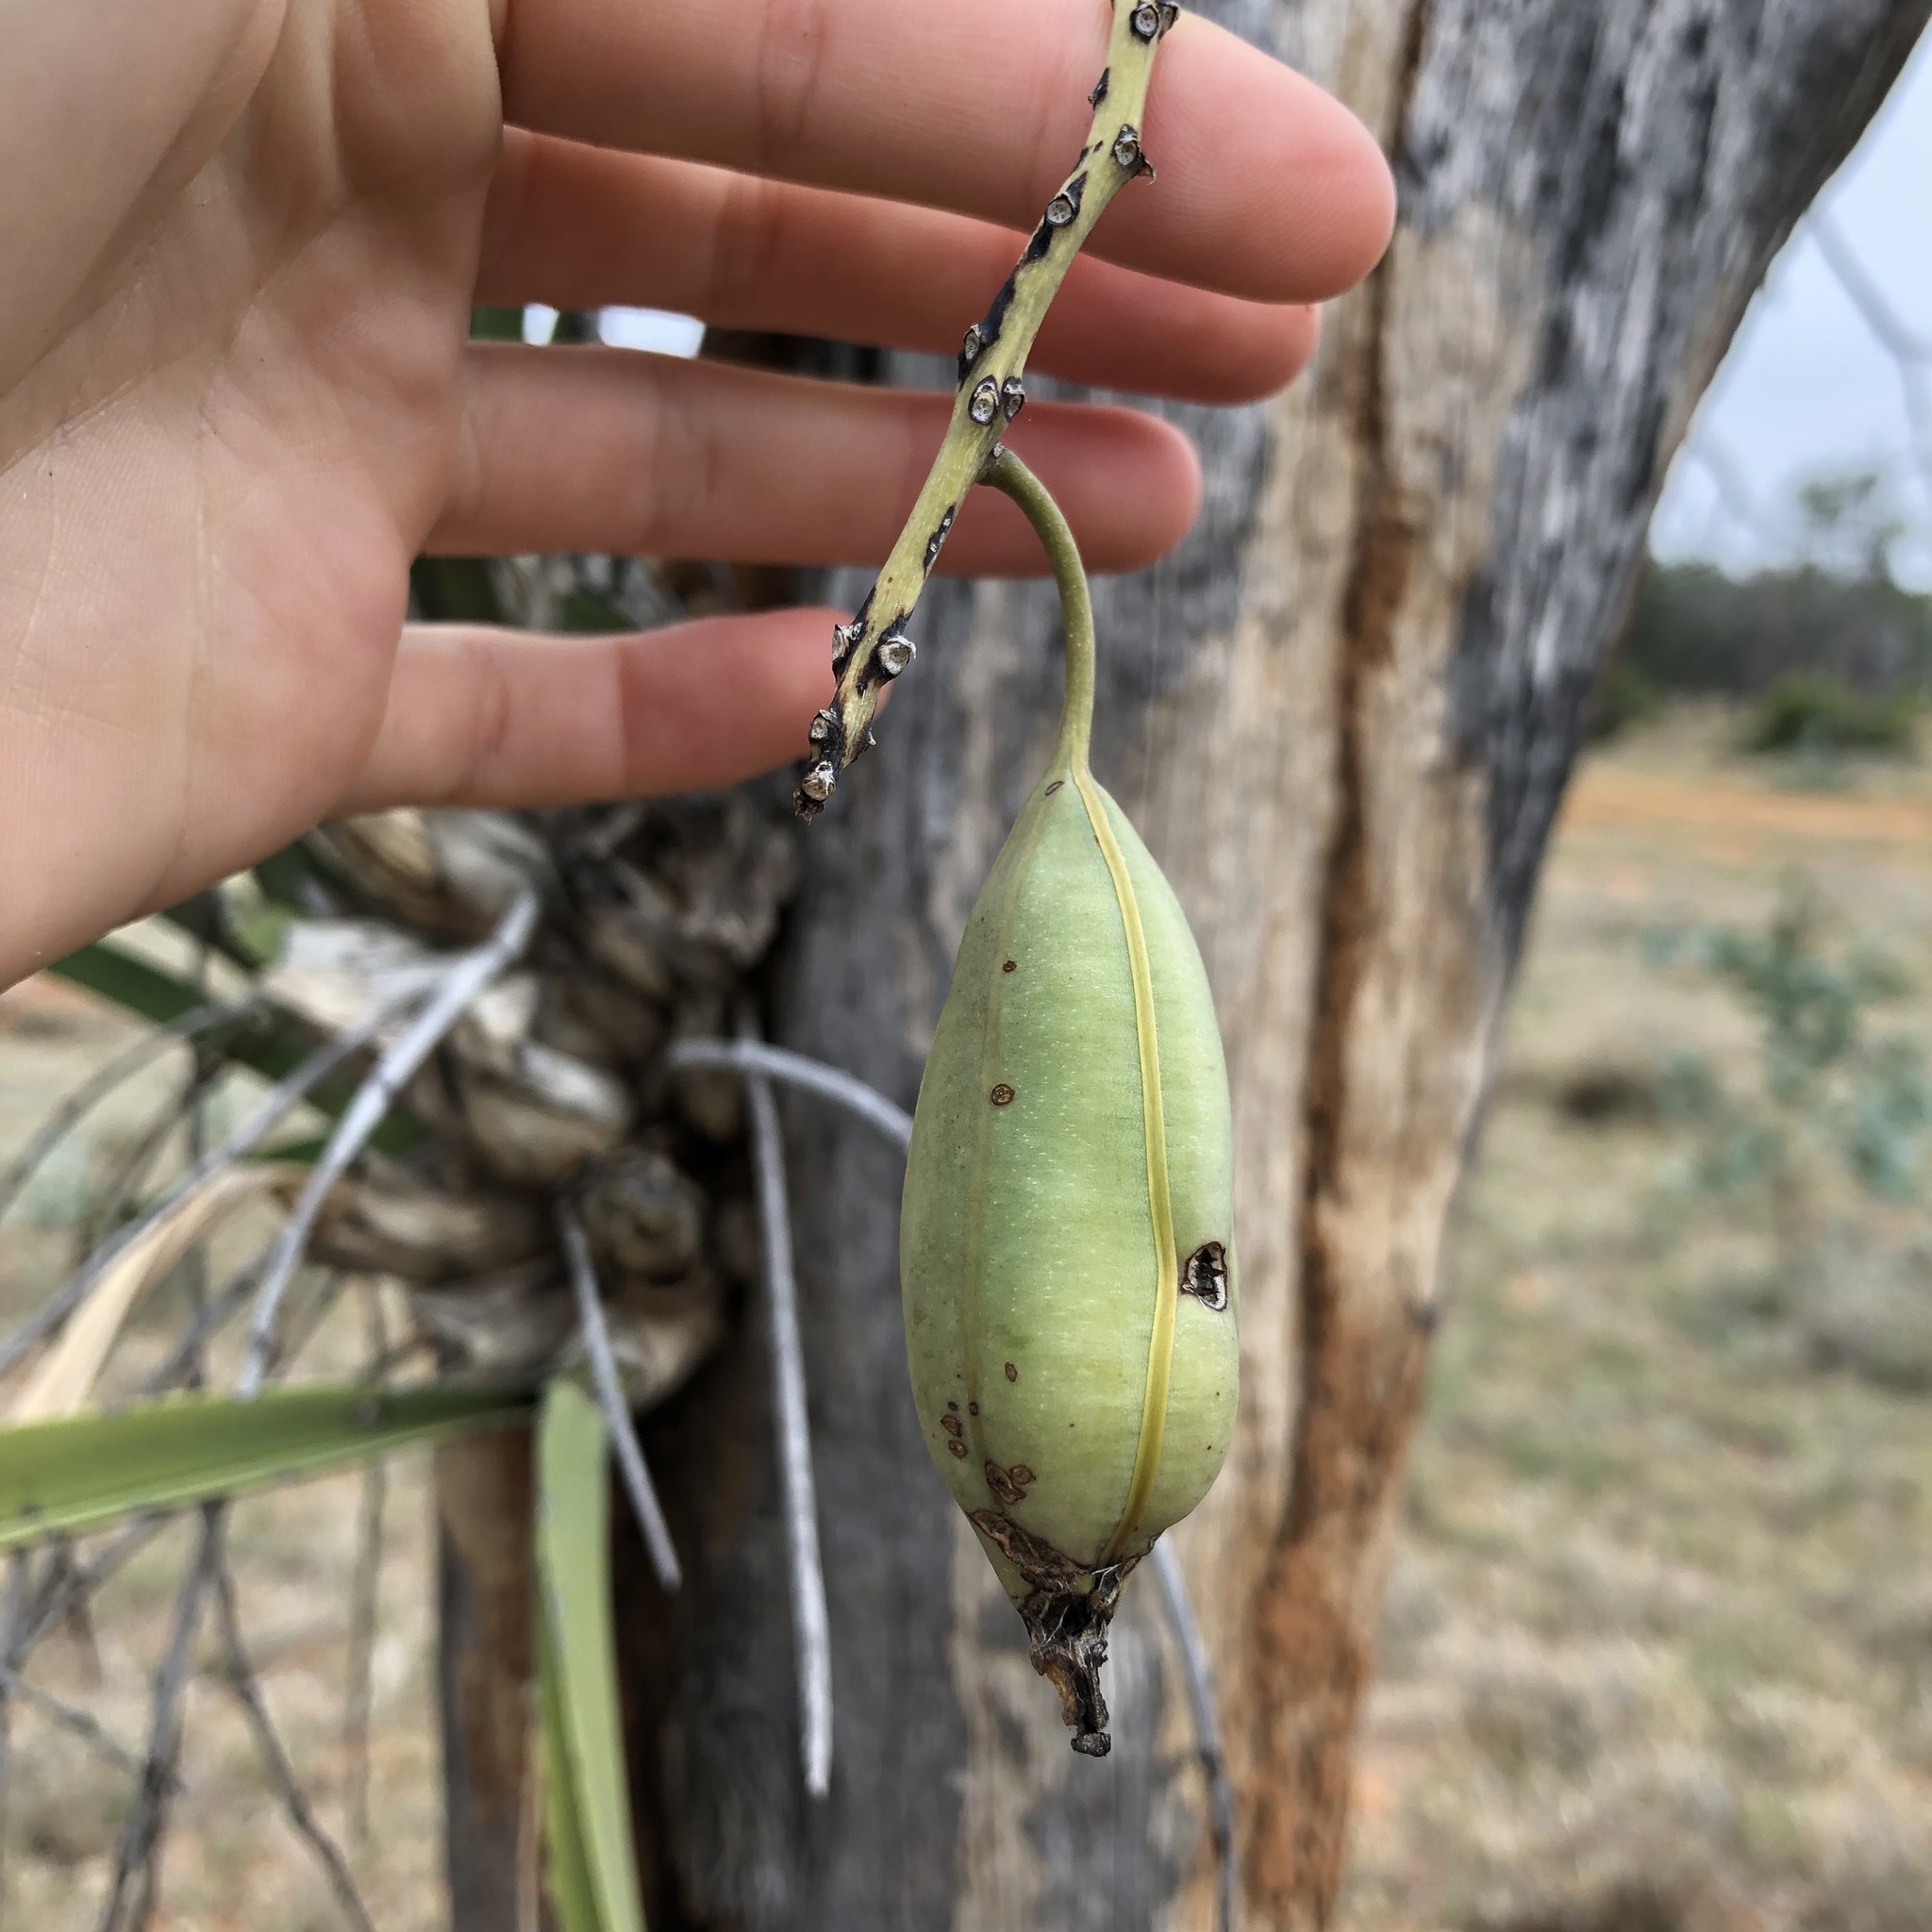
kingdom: Plantae
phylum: Tracheophyta
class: Liliopsida
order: Asparagales
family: Orchidaceae
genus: Cymbidium
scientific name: Cymbidium canaliculatum
